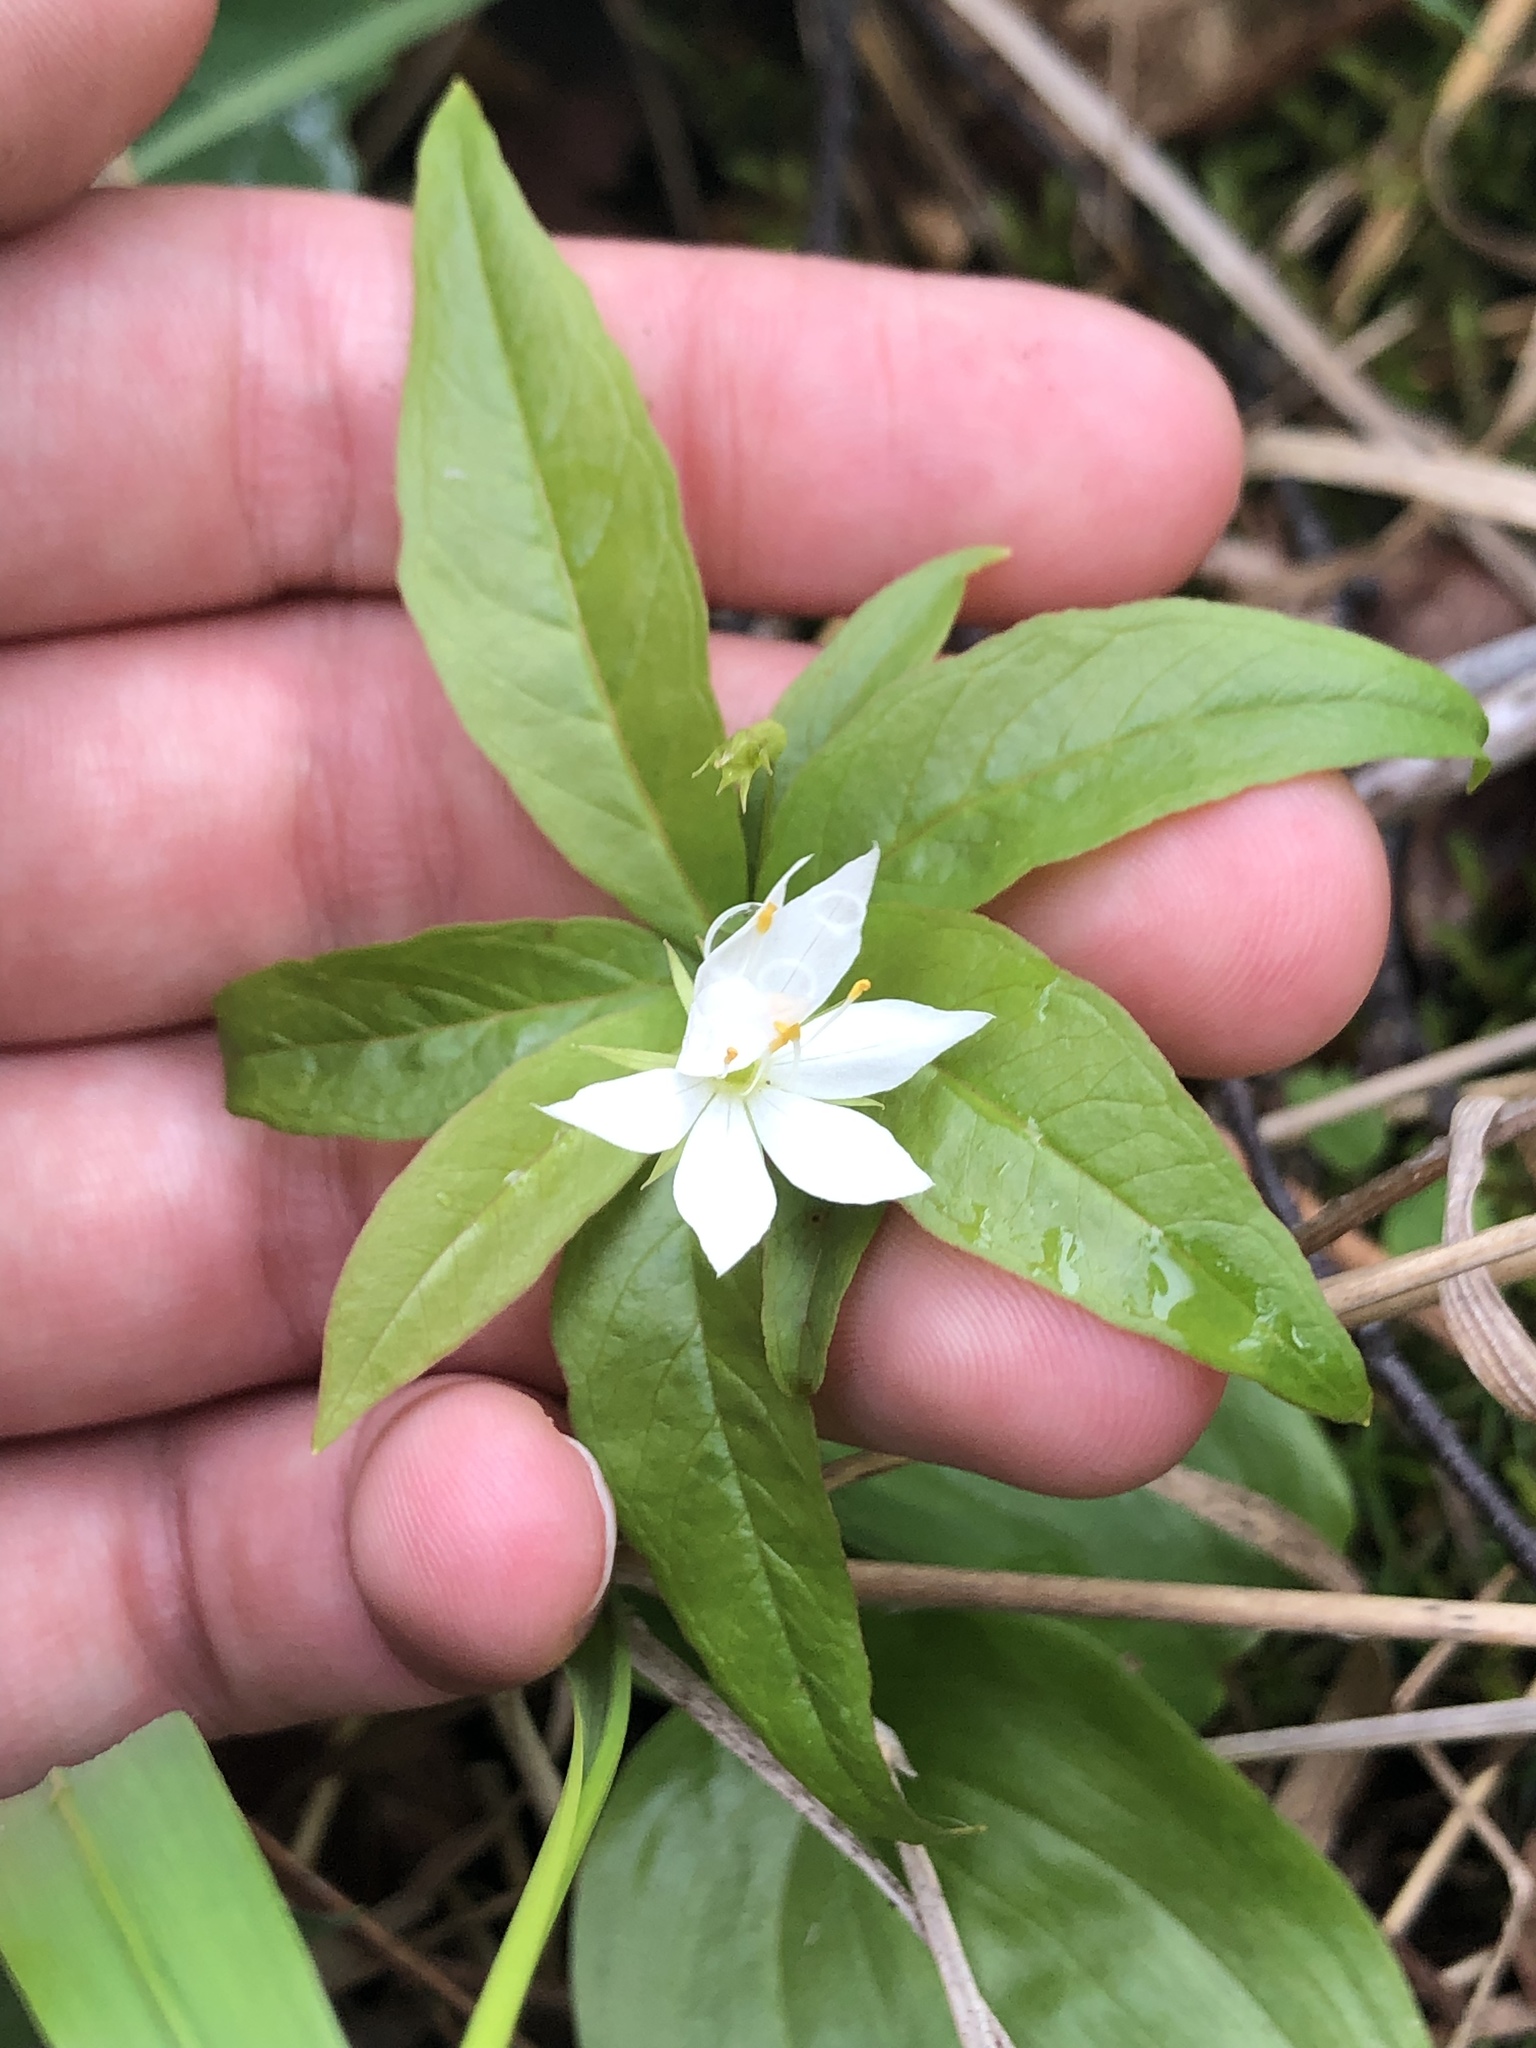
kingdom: Plantae
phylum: Tracheophyta
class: Magnoliopsida
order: Ericales
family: Primulaceae
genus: Lysimachia
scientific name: Lysimachia borealis
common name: American starflower
